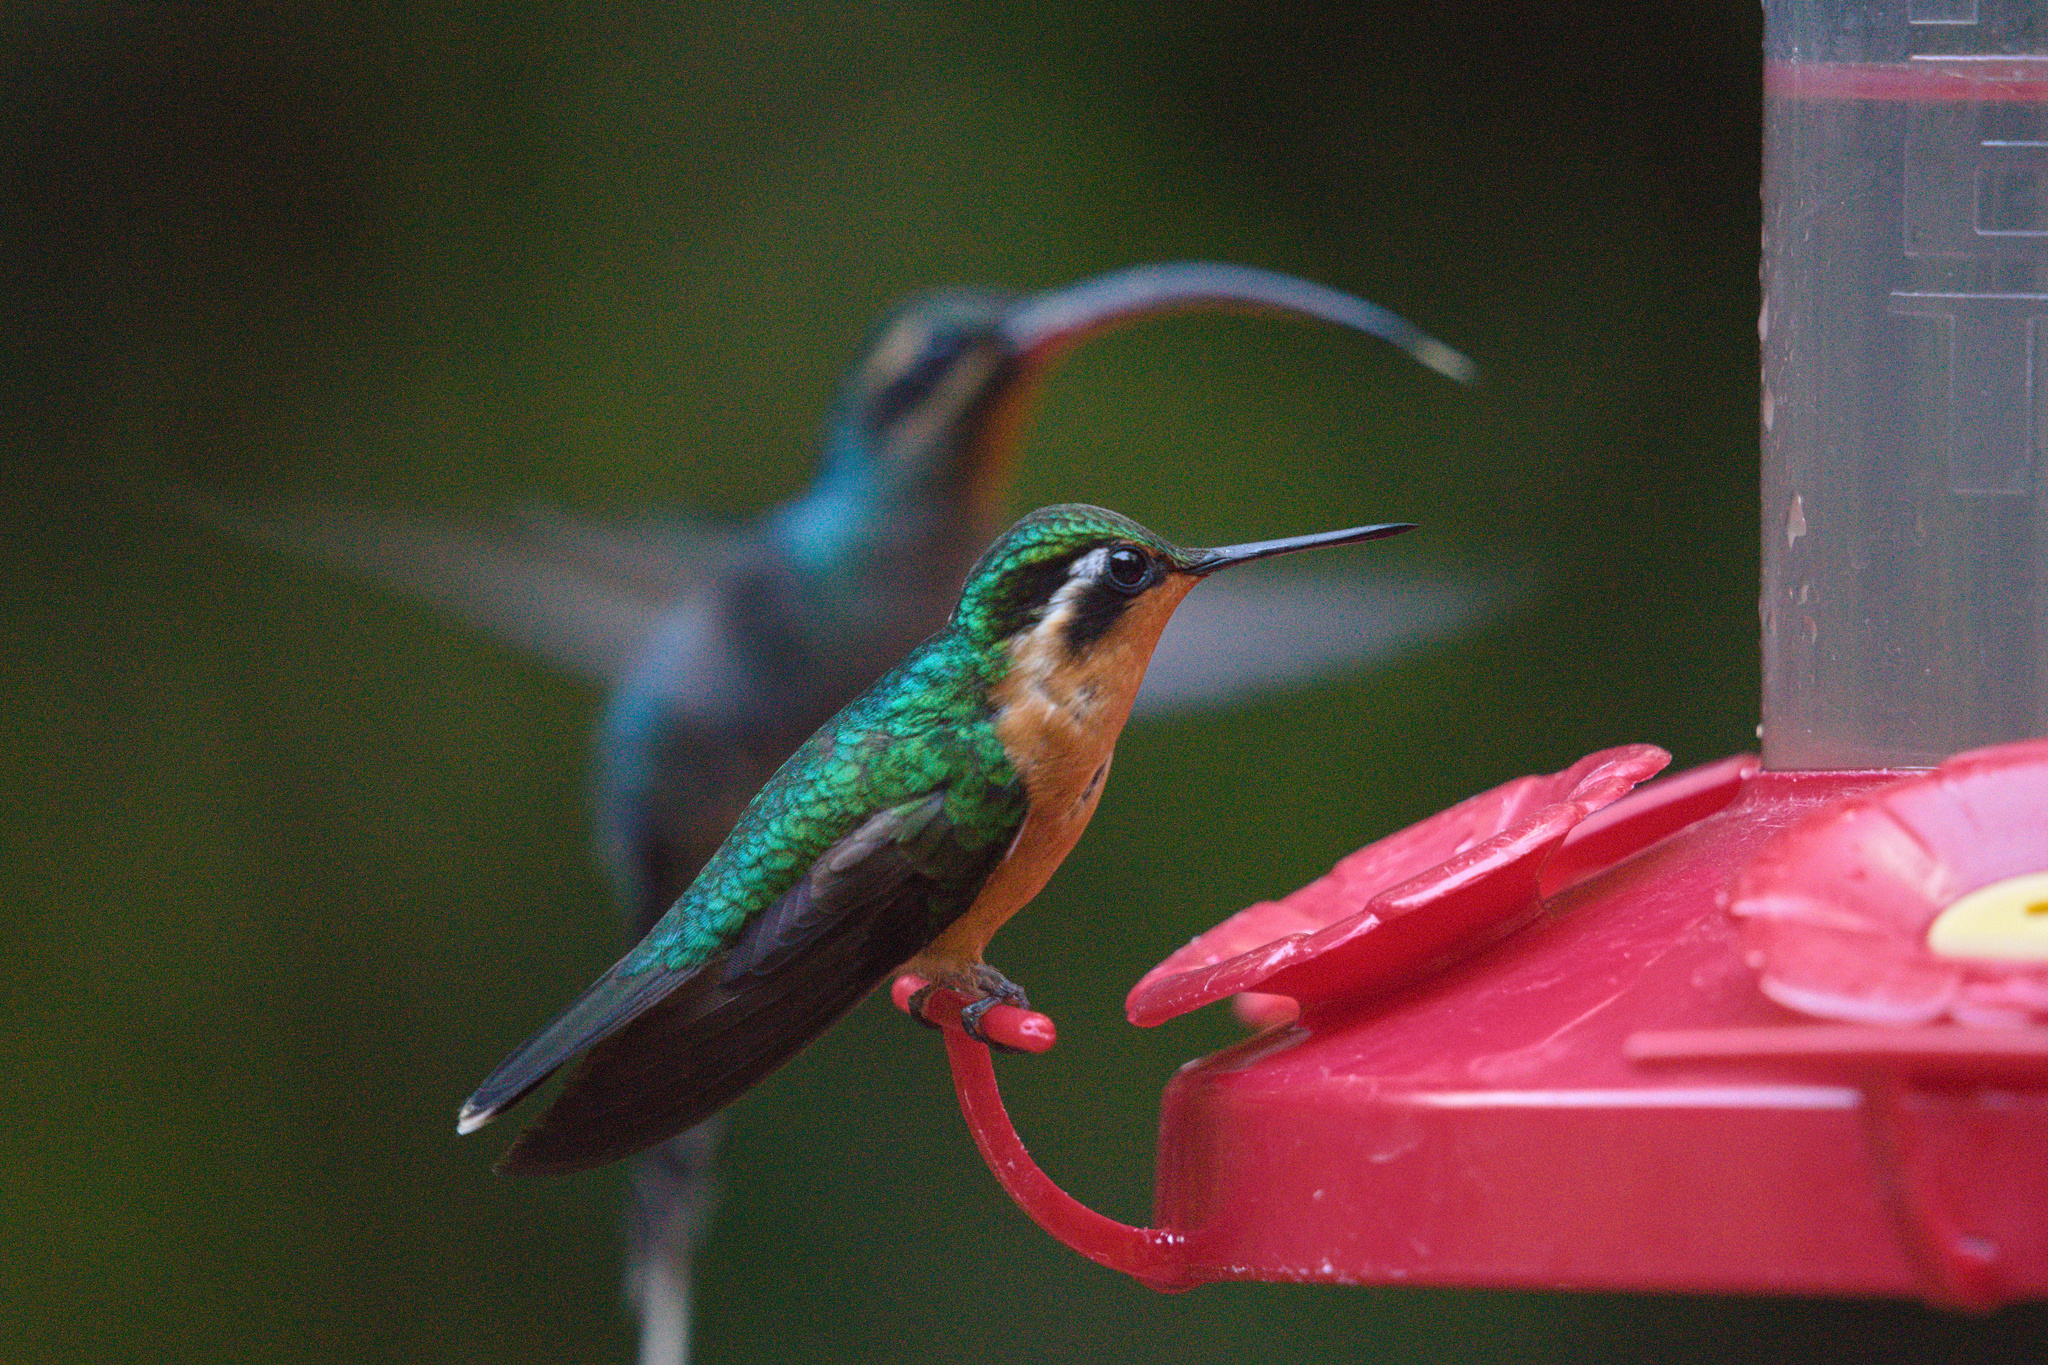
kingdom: Animalia
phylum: Chordata
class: Aves
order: Apodiformes
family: Trochilidae
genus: Lampornis
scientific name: Lampornis calolaemus
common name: Purple-throated mountain-gem
